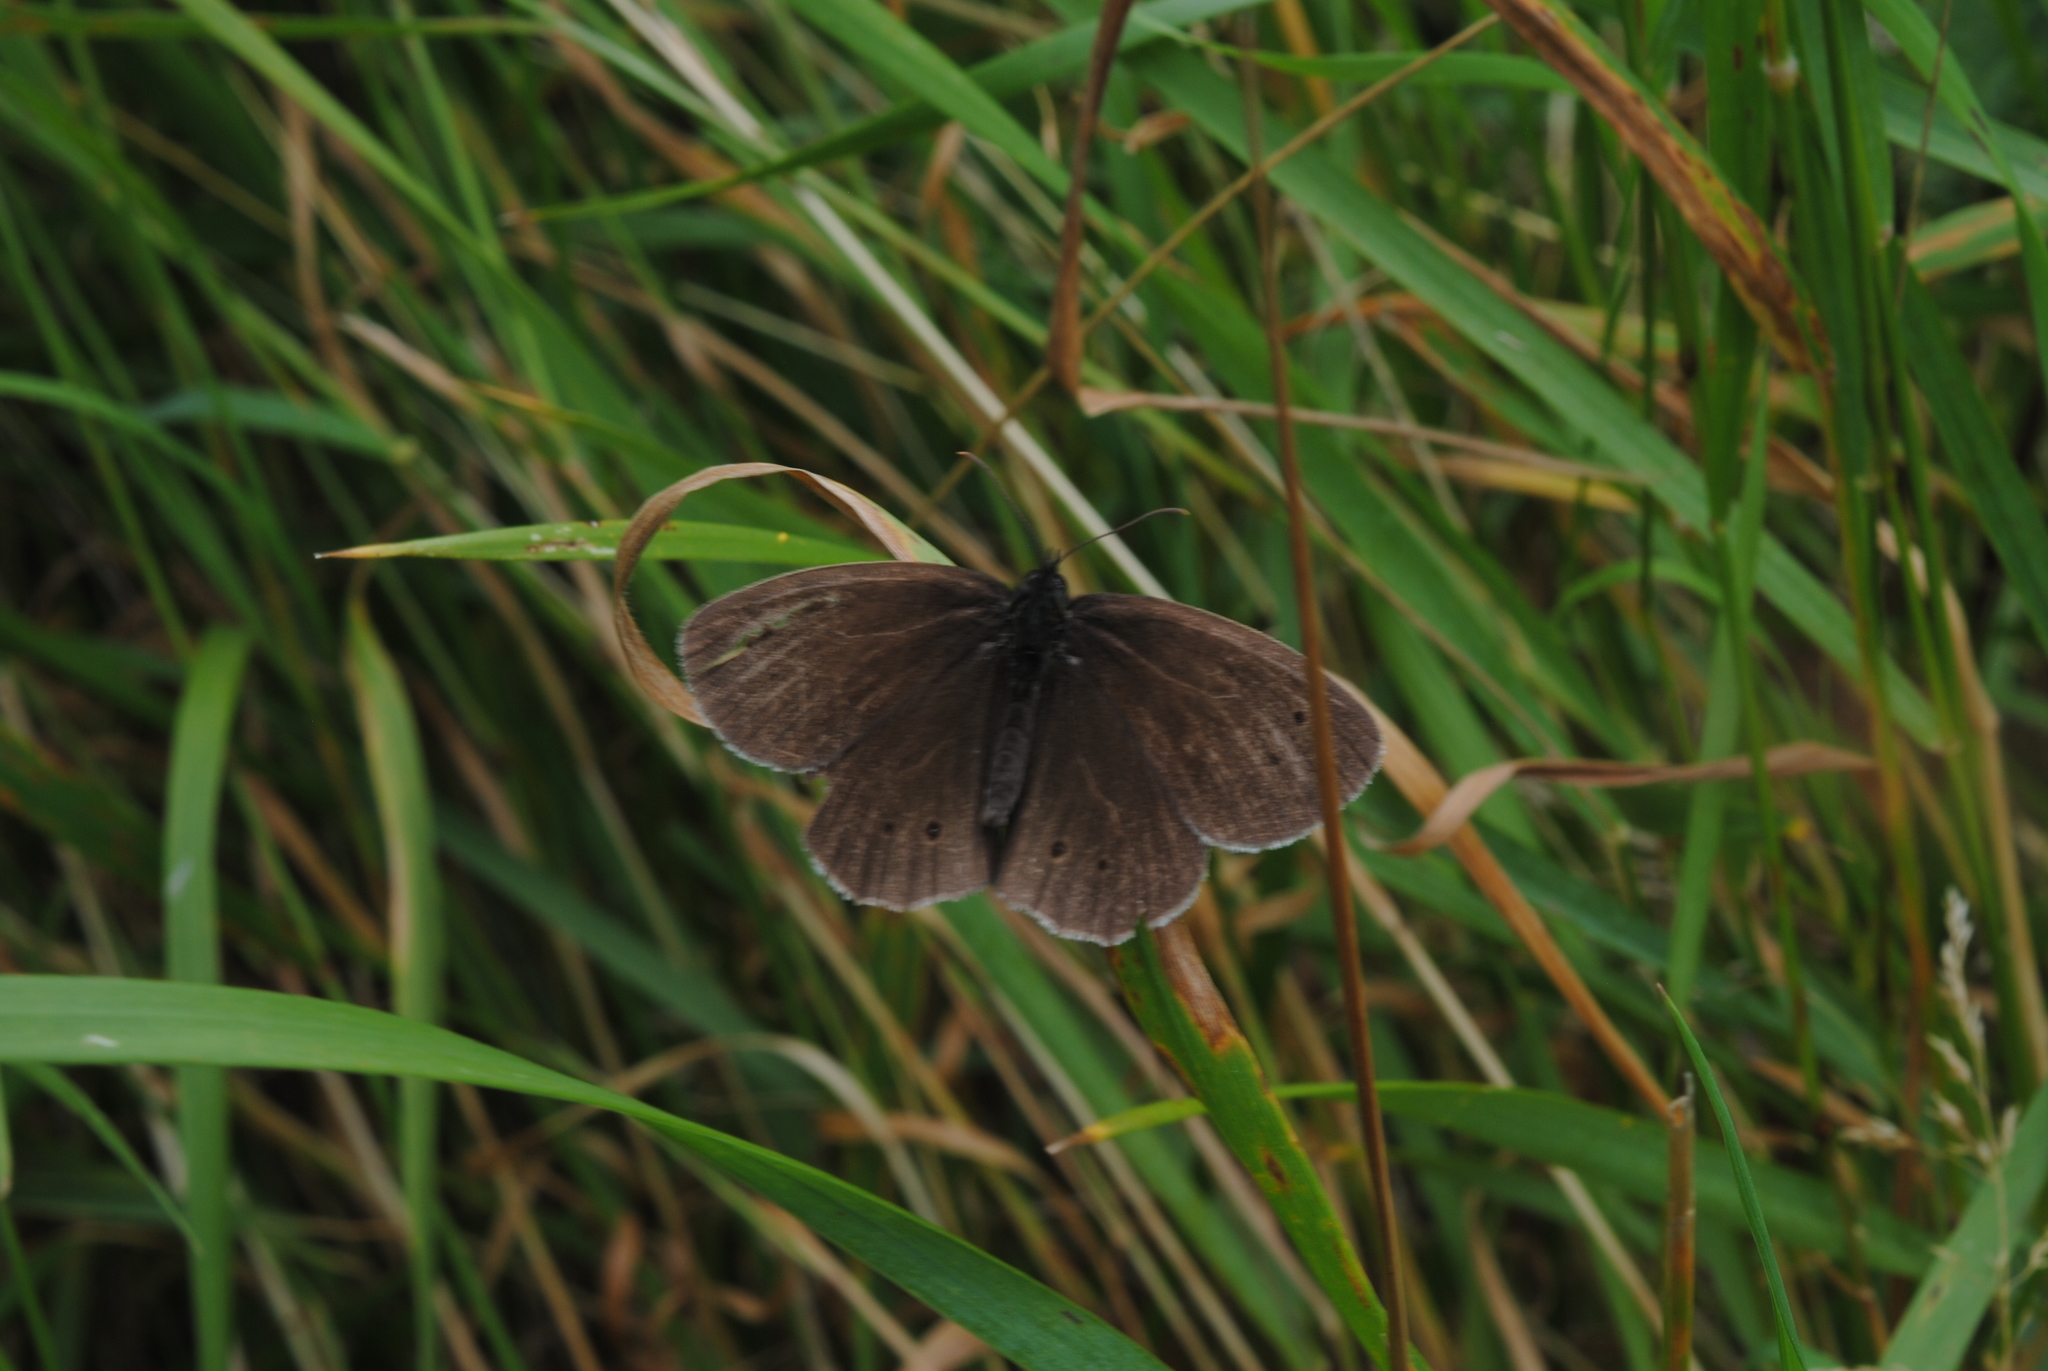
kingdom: Animalia
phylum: Arthropoda
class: Insecta
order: Lepidoptera
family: Nymphalidae
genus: Aphantopus
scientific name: Aphantopus hyperantus
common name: Ringlet
